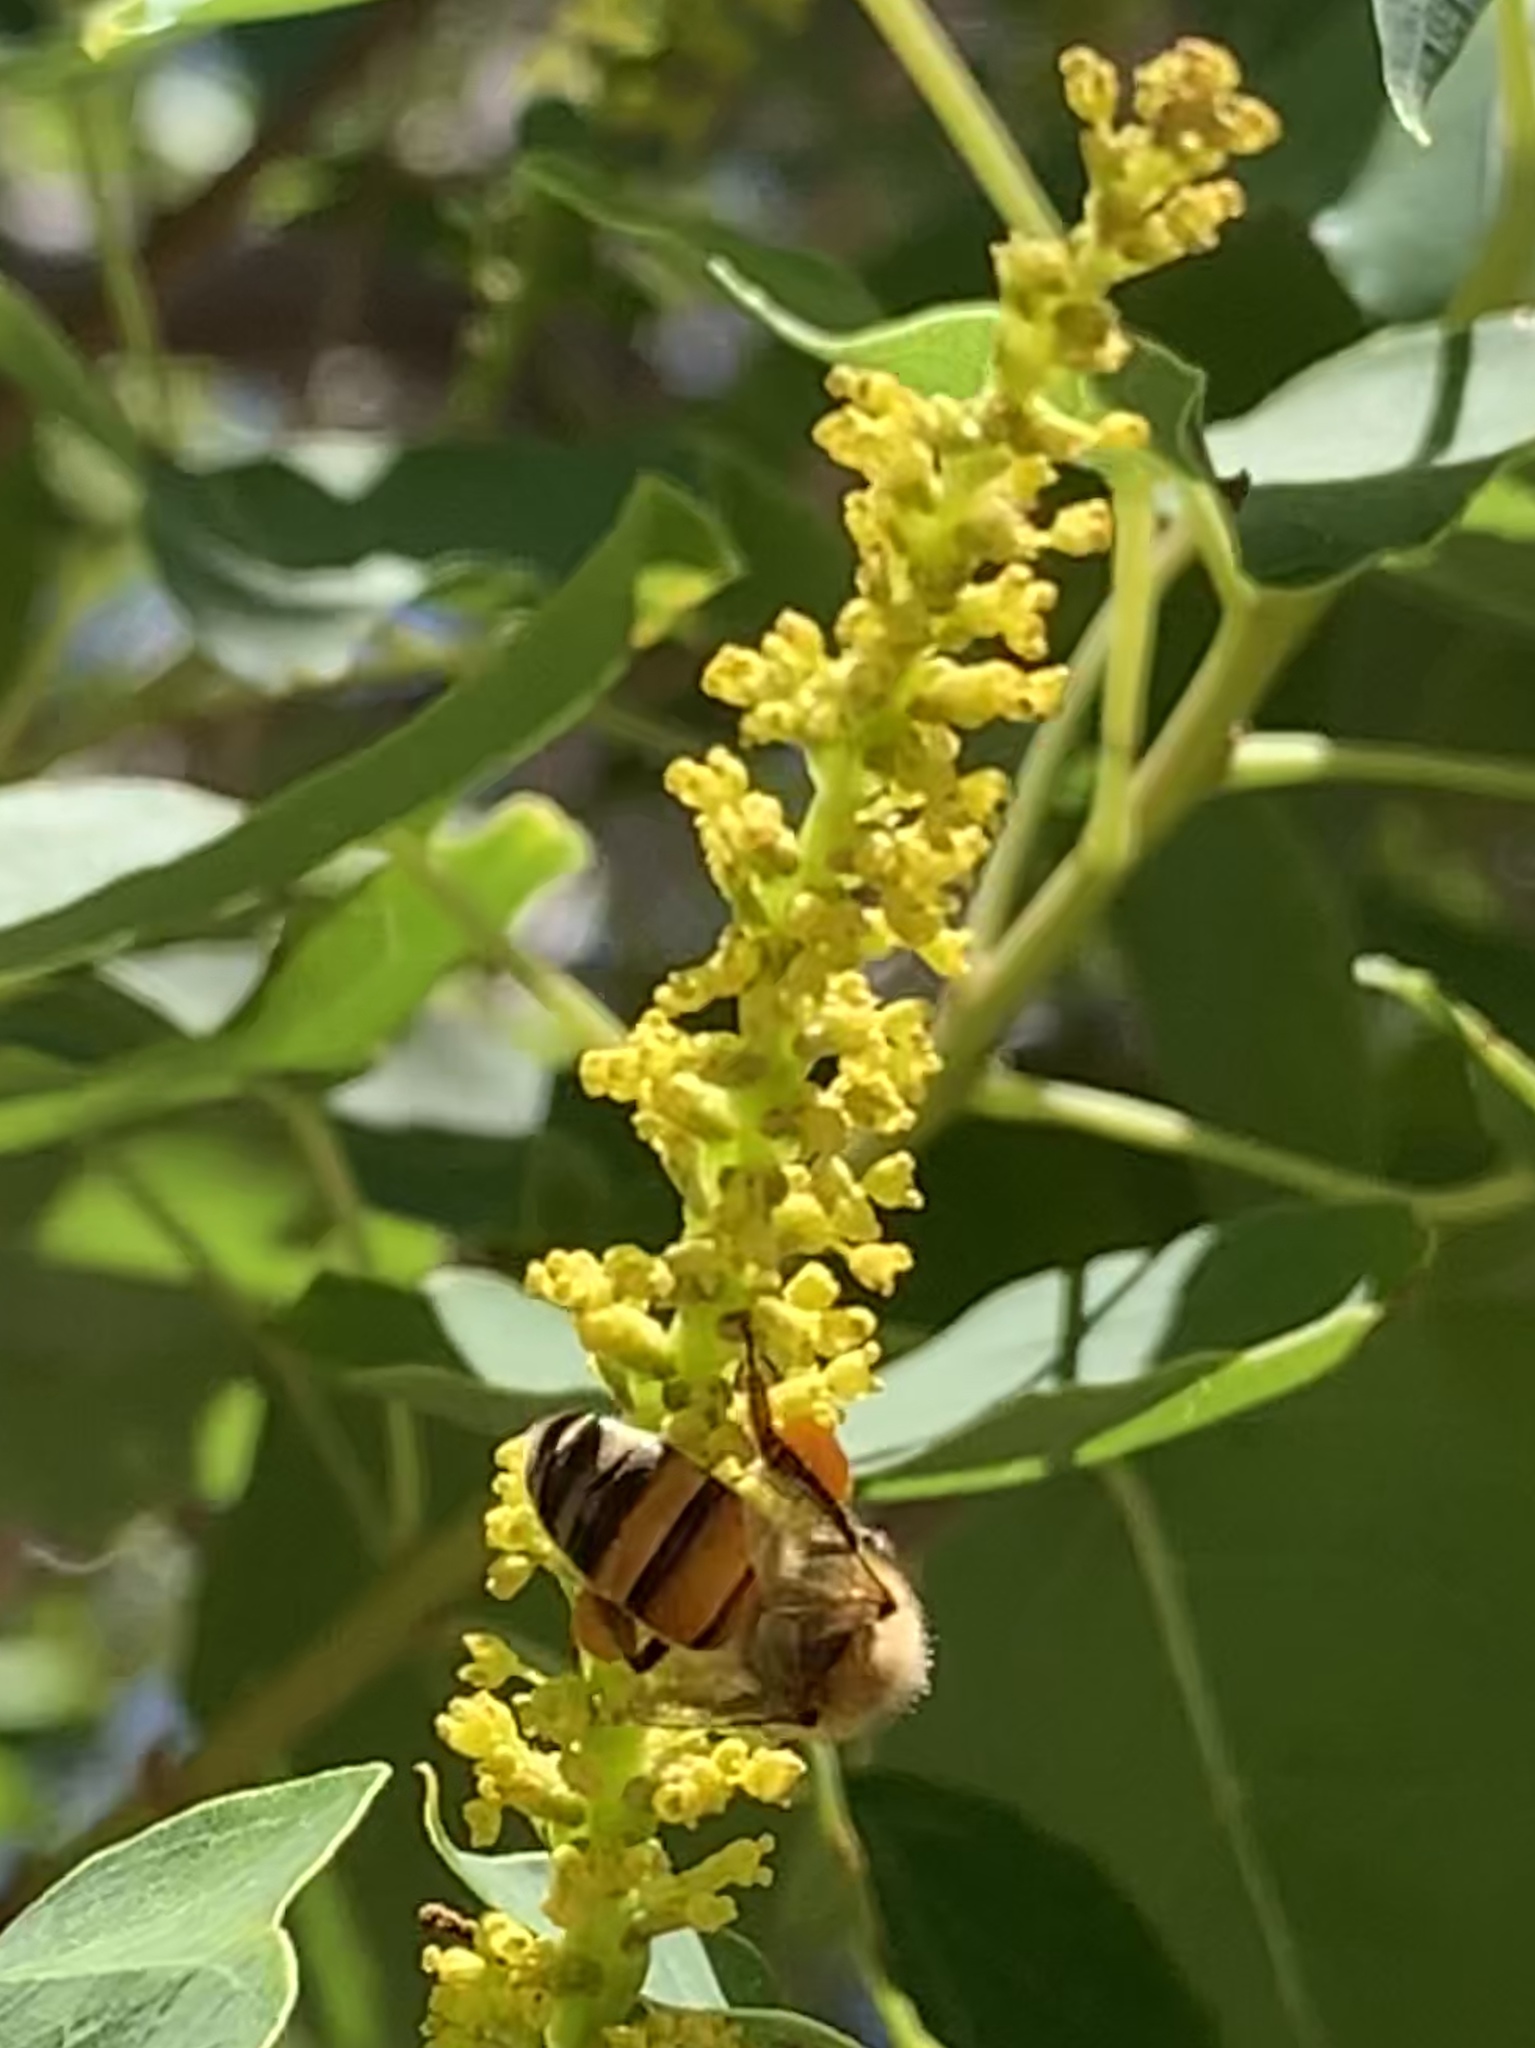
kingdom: Animalia
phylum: Arthropoda
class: Insecta
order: Hymenoptera
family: Apidae
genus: Apis
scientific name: Apis mellifera
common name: Honey bee
